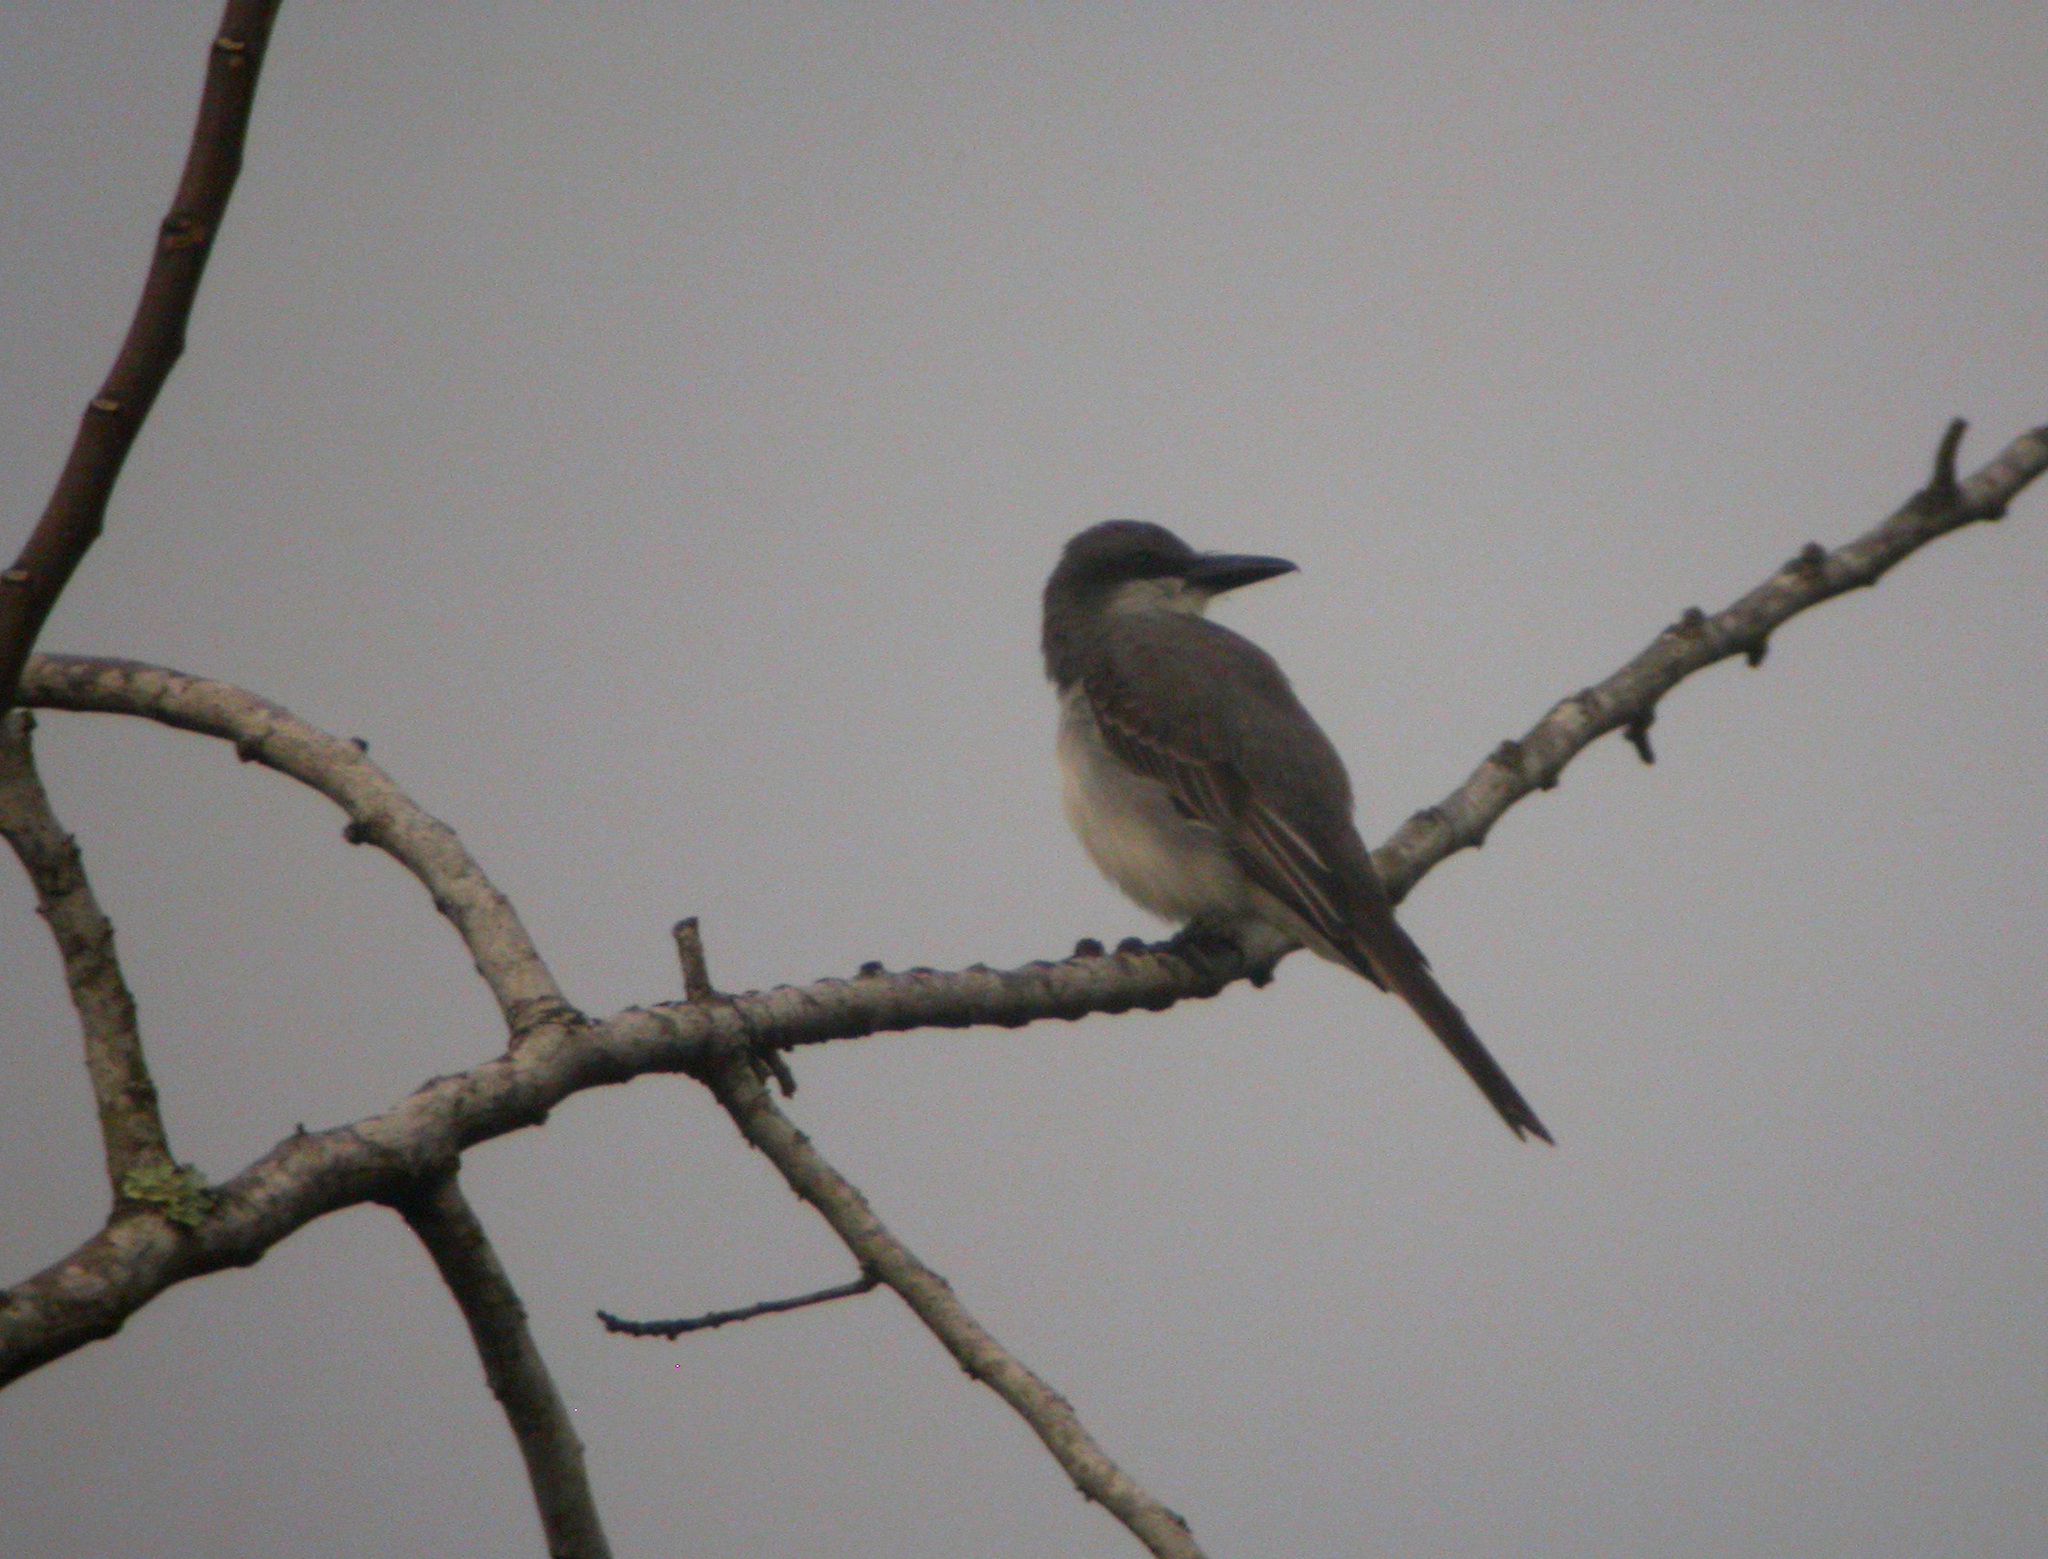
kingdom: Animalia
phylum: Chordata
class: Aves
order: Passeriformes
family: Tyrannidae
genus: Tyrannus
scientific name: Tyrannus dominicensis
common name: Gray kingbird
